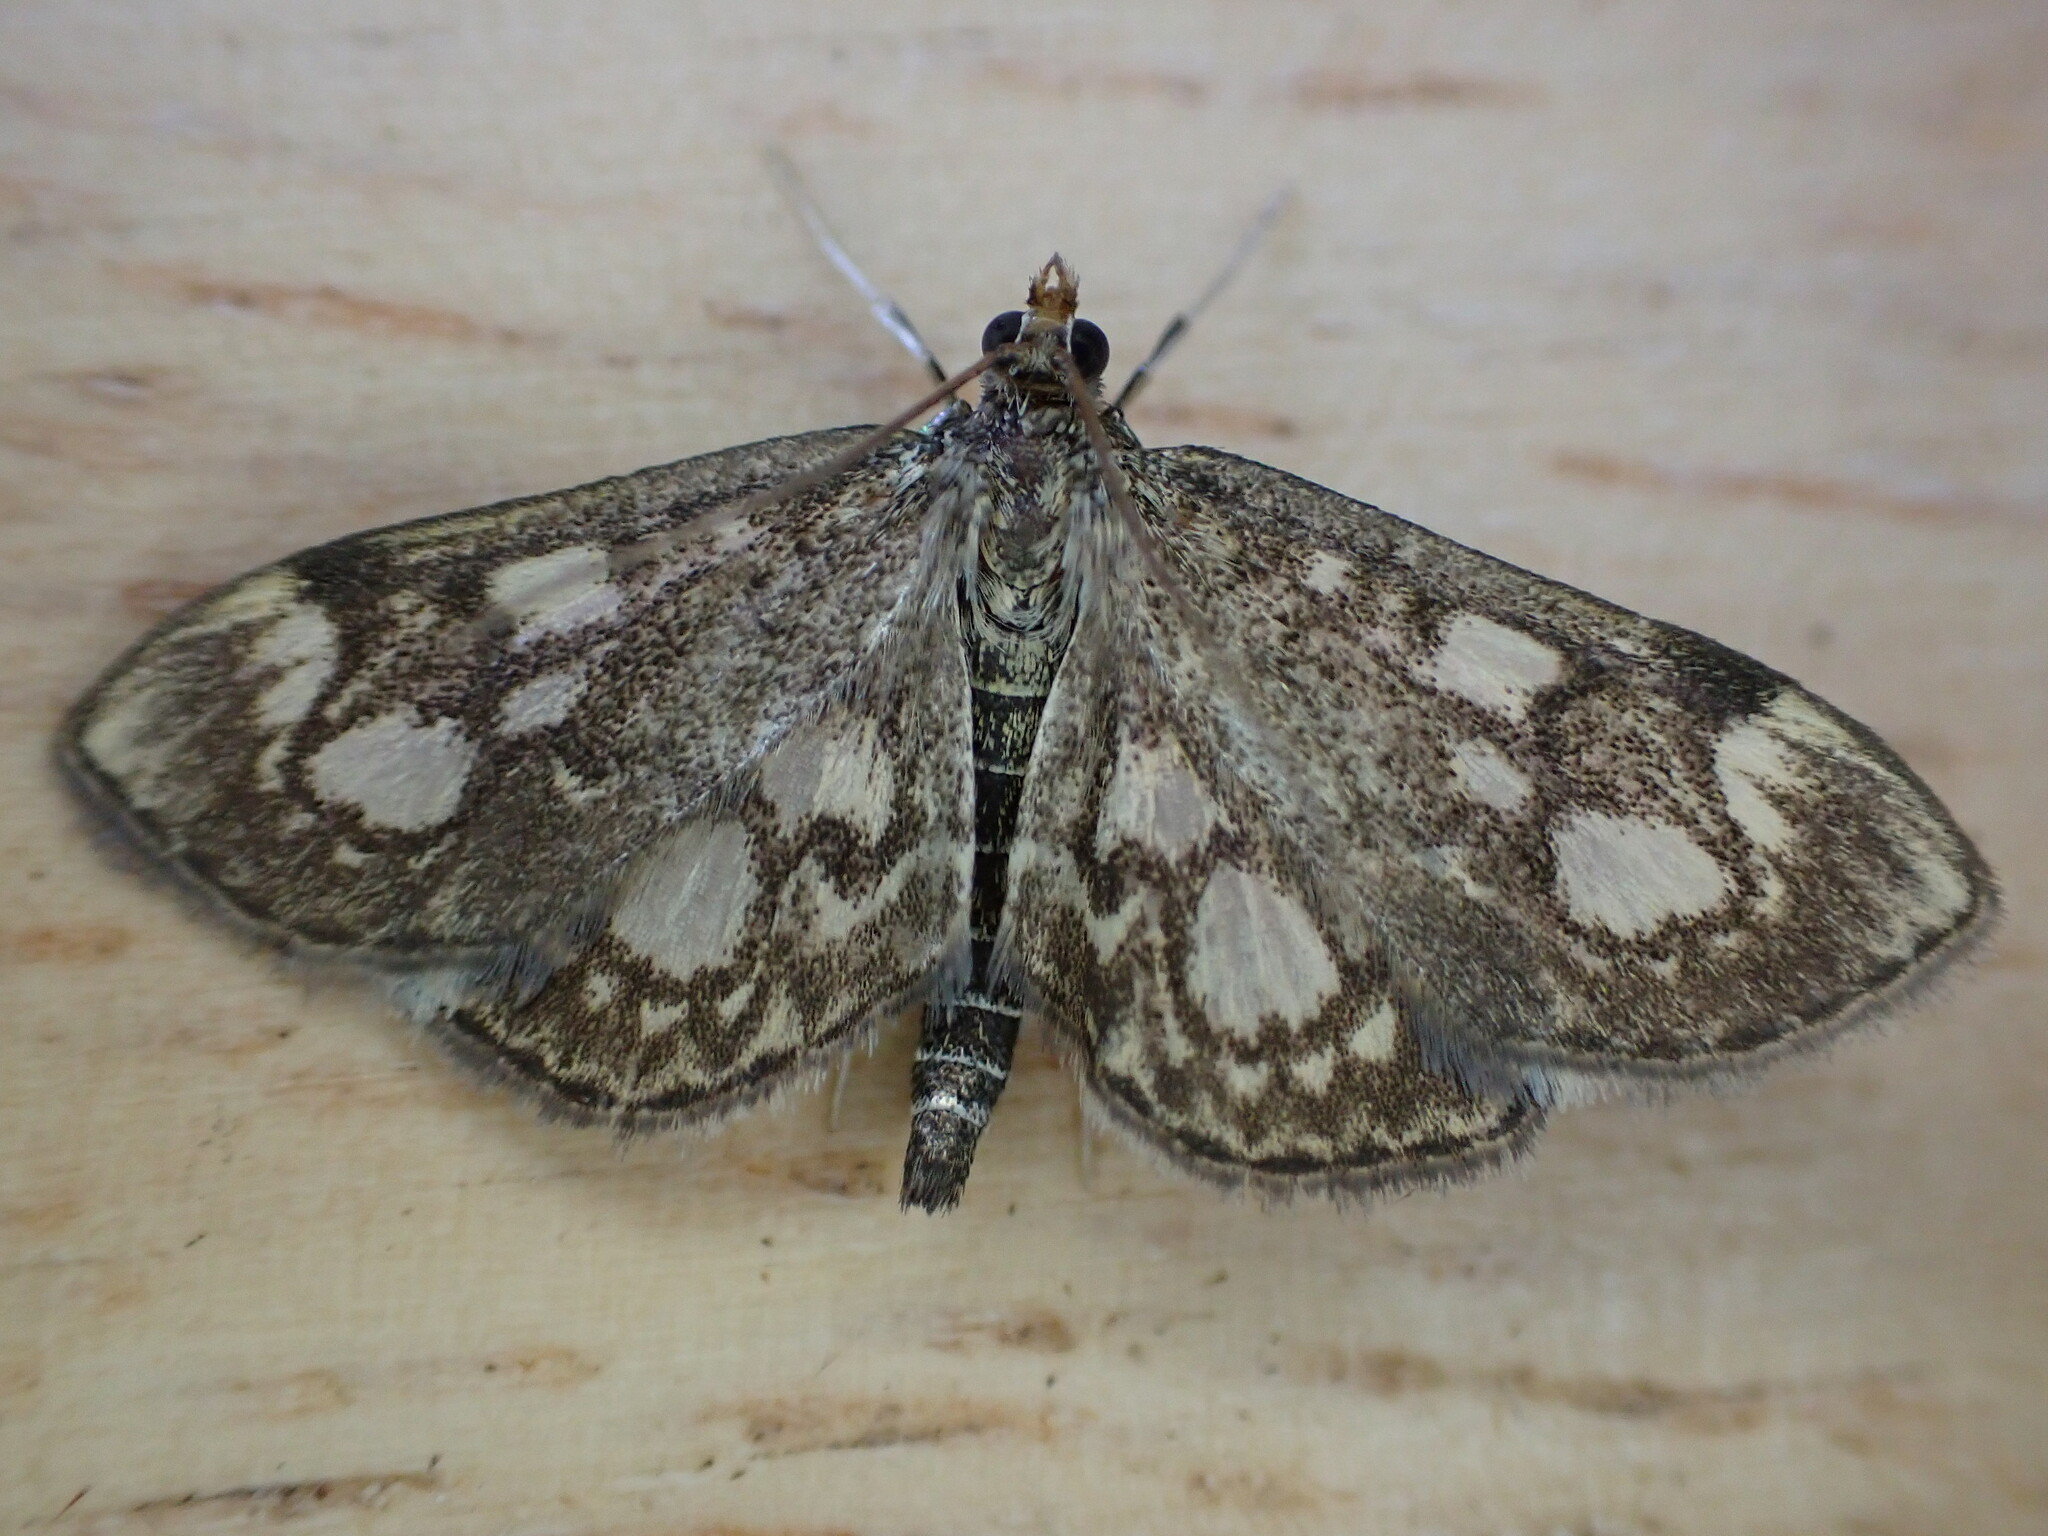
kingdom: Animalia
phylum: Arthropoda
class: Insecta
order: Lepidoptera
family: Crambidae
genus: Anania
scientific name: Anania coronata
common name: Elder pearl
